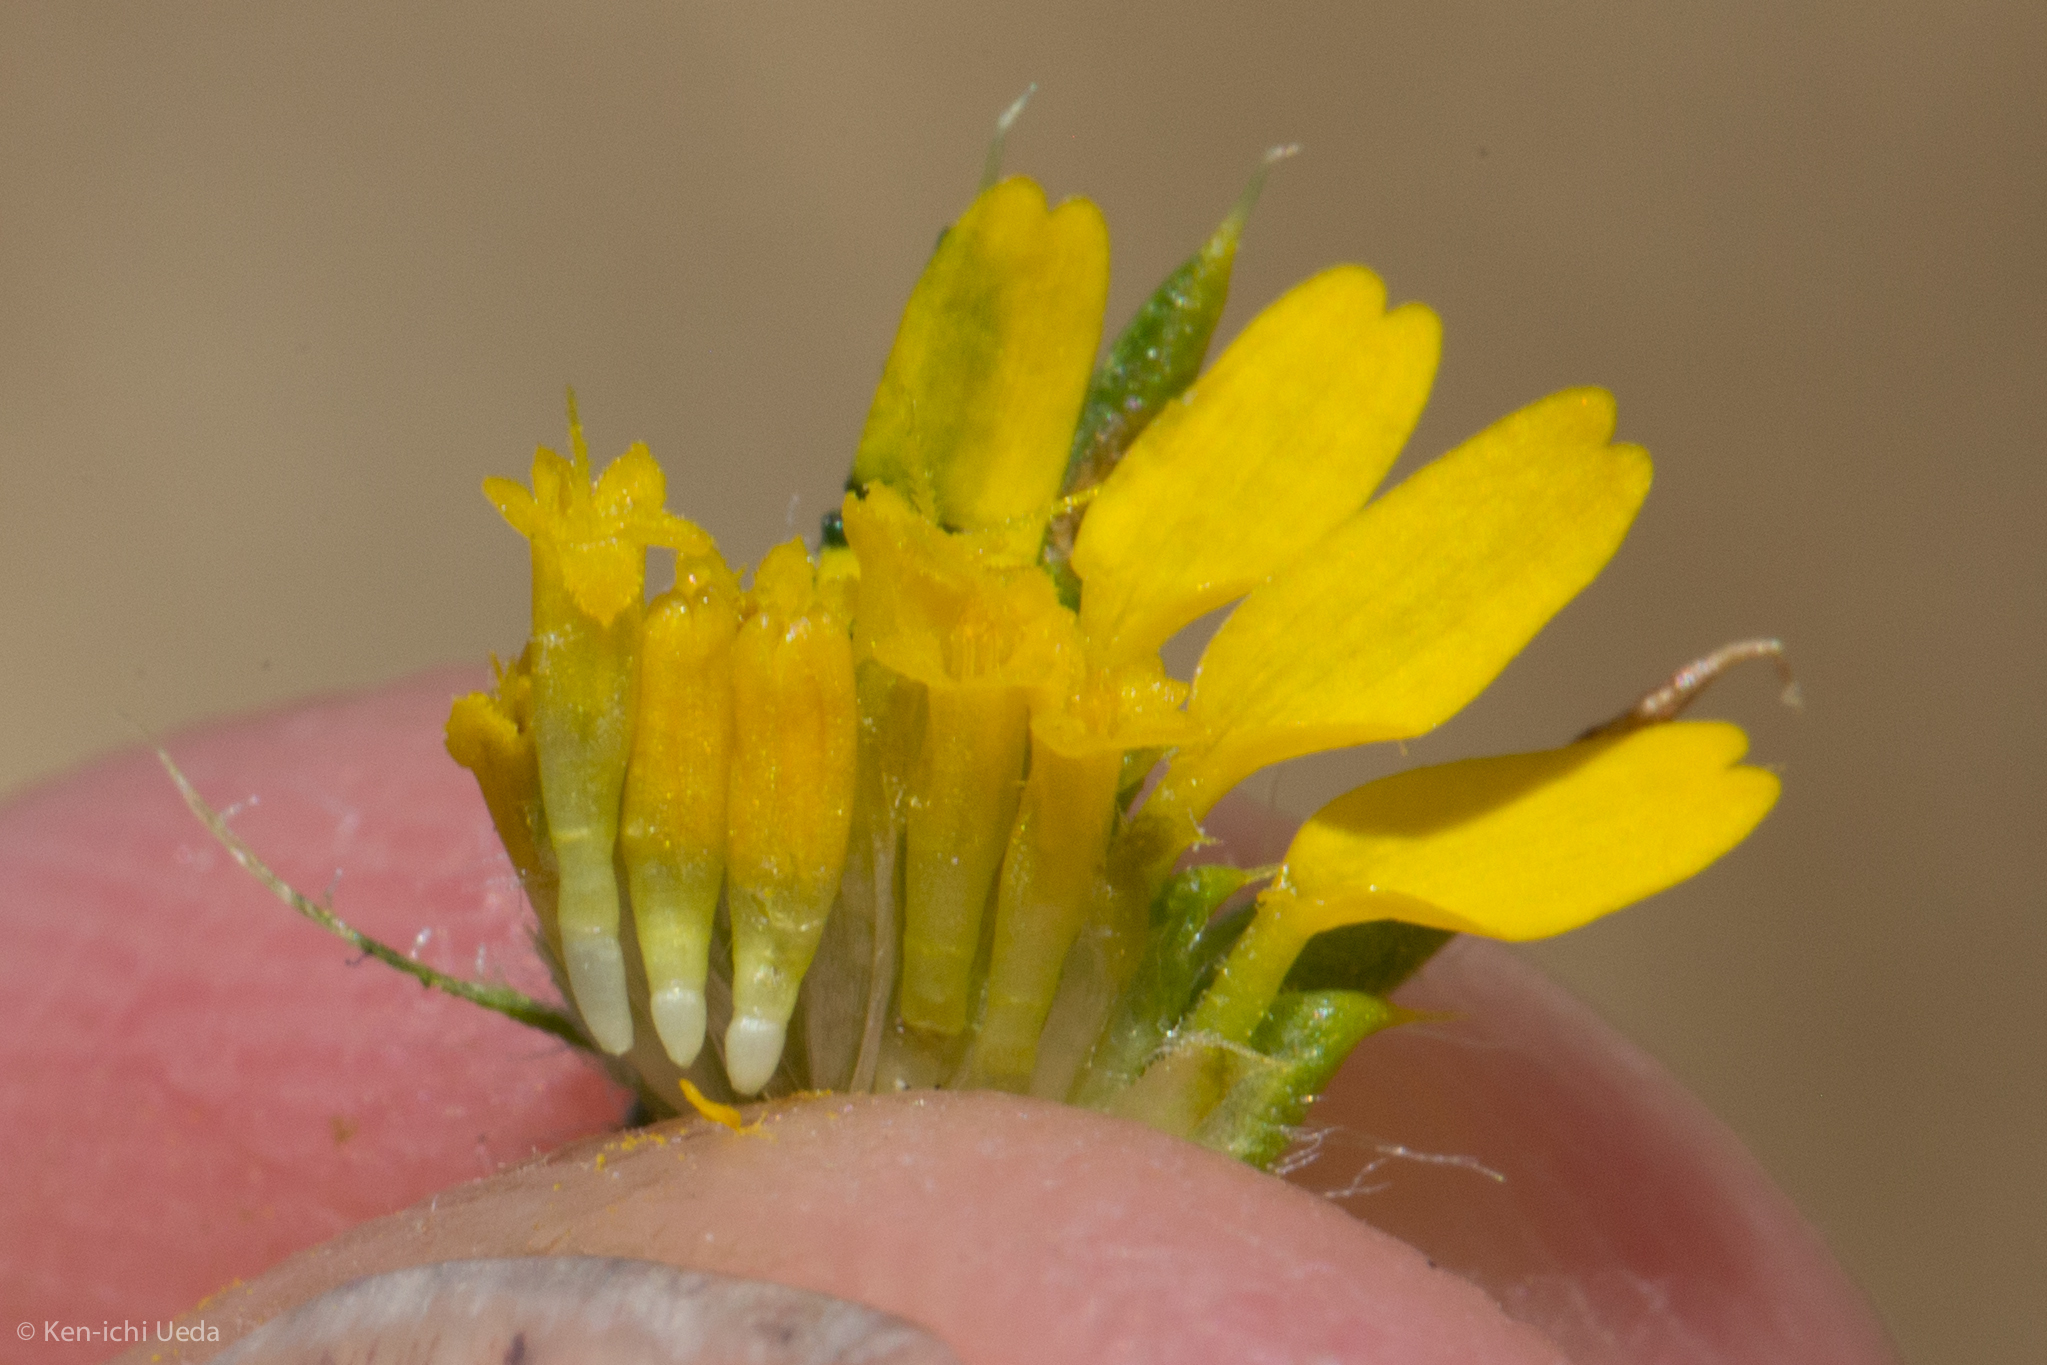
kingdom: Plantae
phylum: Tracheophyta
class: Magnoliopsida
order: Asterales
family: Asteraceae
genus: Centromadia
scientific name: Centromadia pungens
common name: Common spikeweed
